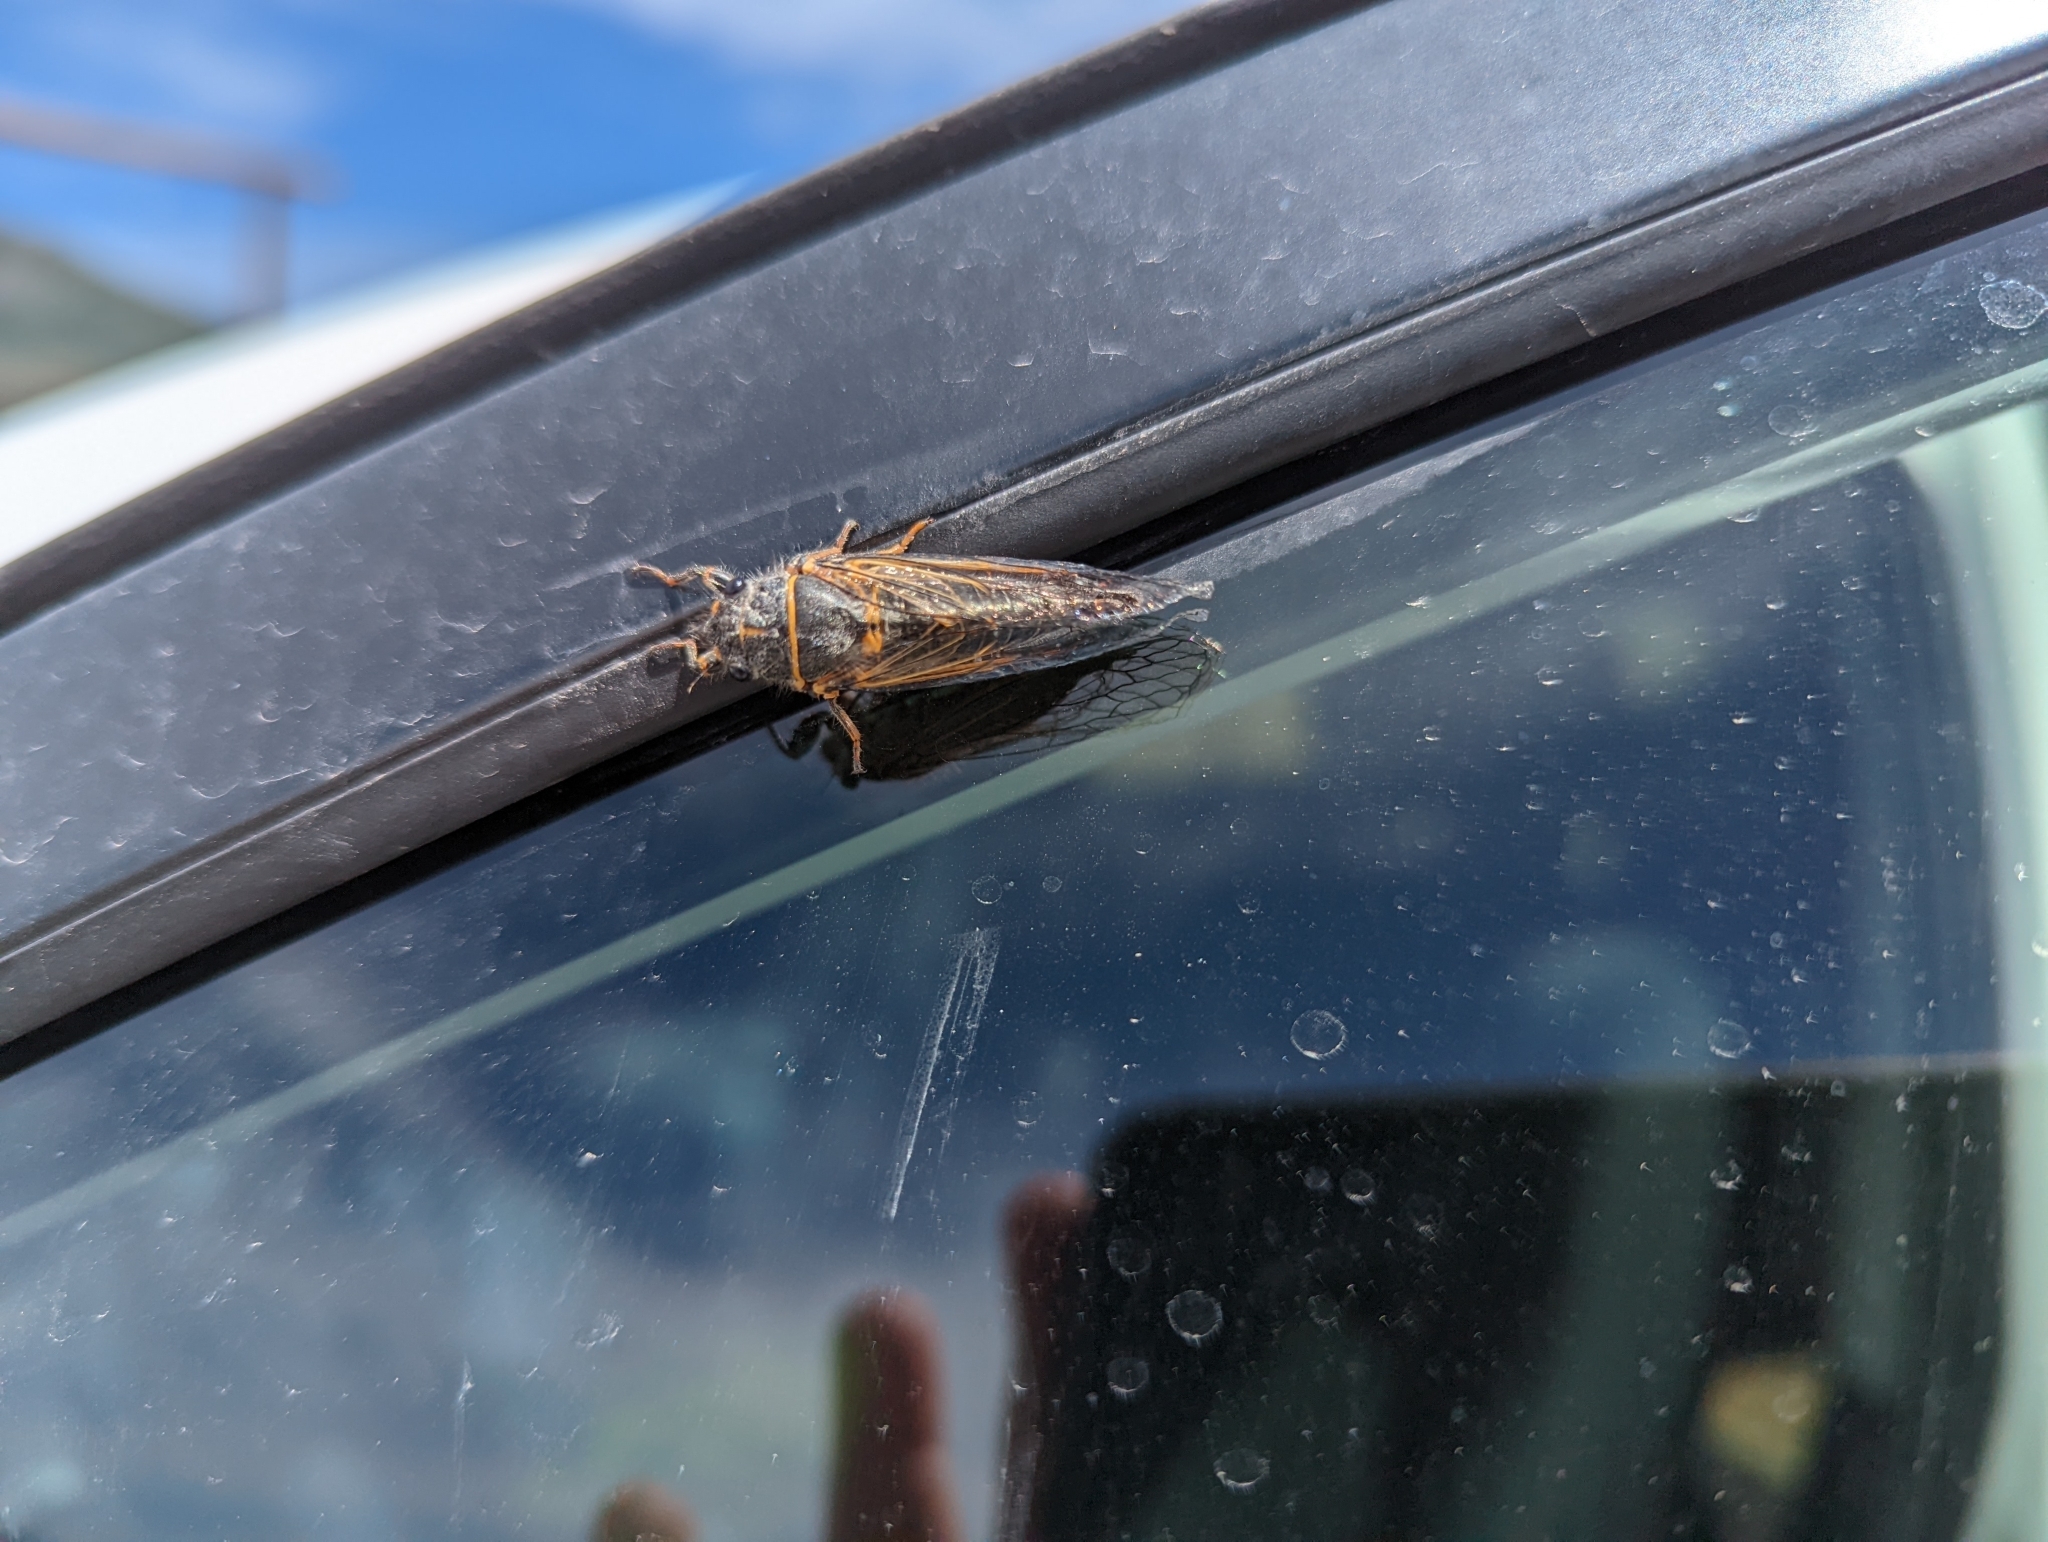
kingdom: Animalia
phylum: Arthropoda
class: Insecta
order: Hemiptera
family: Cicadidae
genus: Platypedia
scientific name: Platypedia putnami
